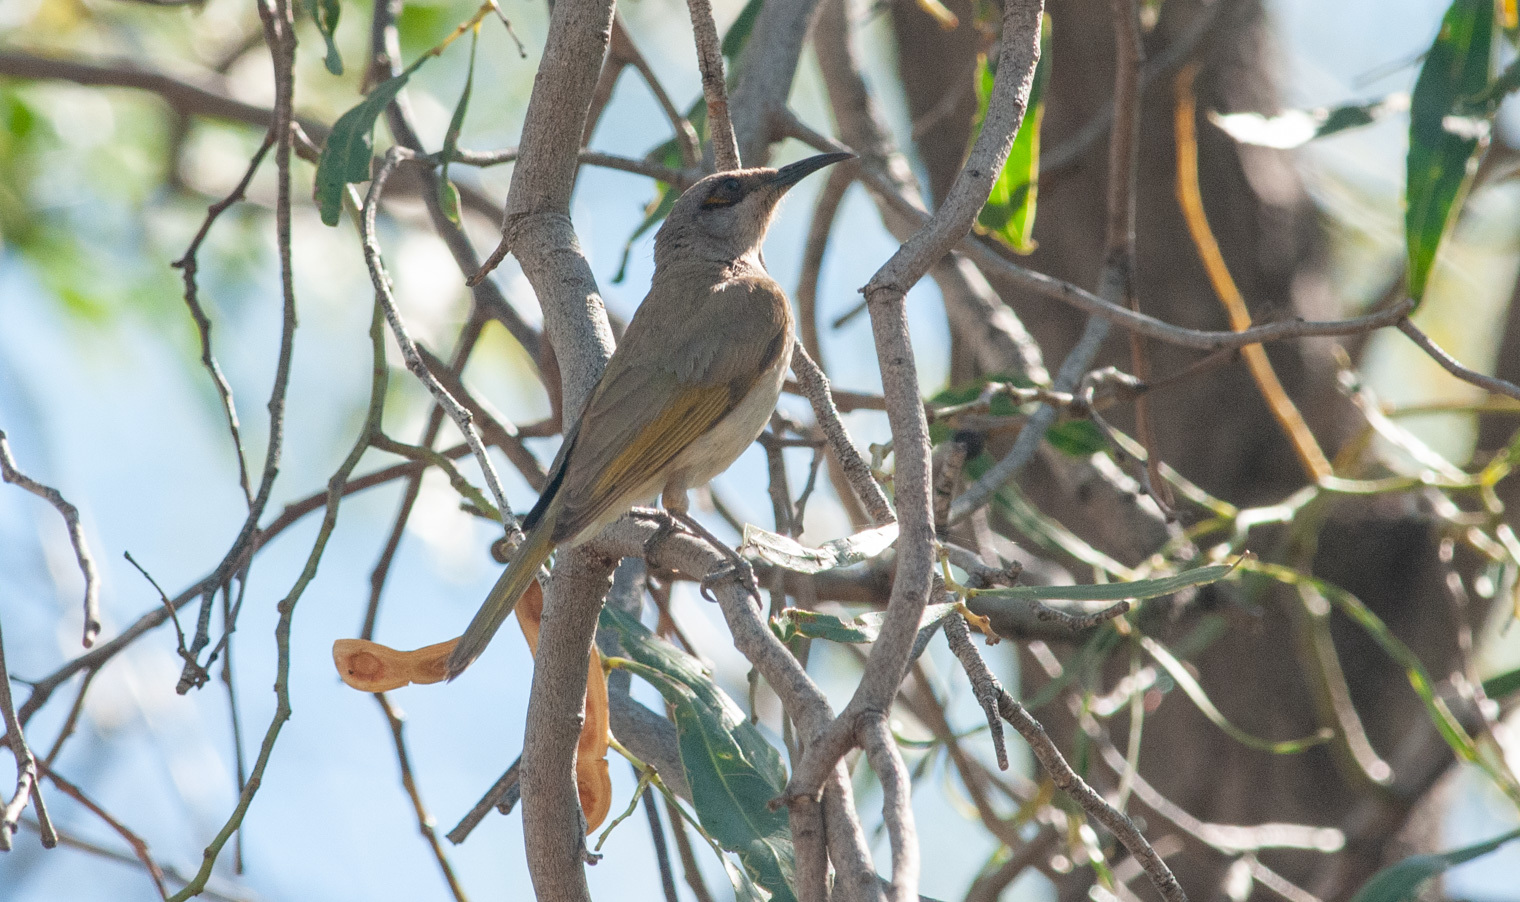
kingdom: Animalia
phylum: Chordata
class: Aves
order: Passeriformes
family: Meliphagidae
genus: Lichmera
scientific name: Lichmera indistincta
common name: Brown honeyeater
